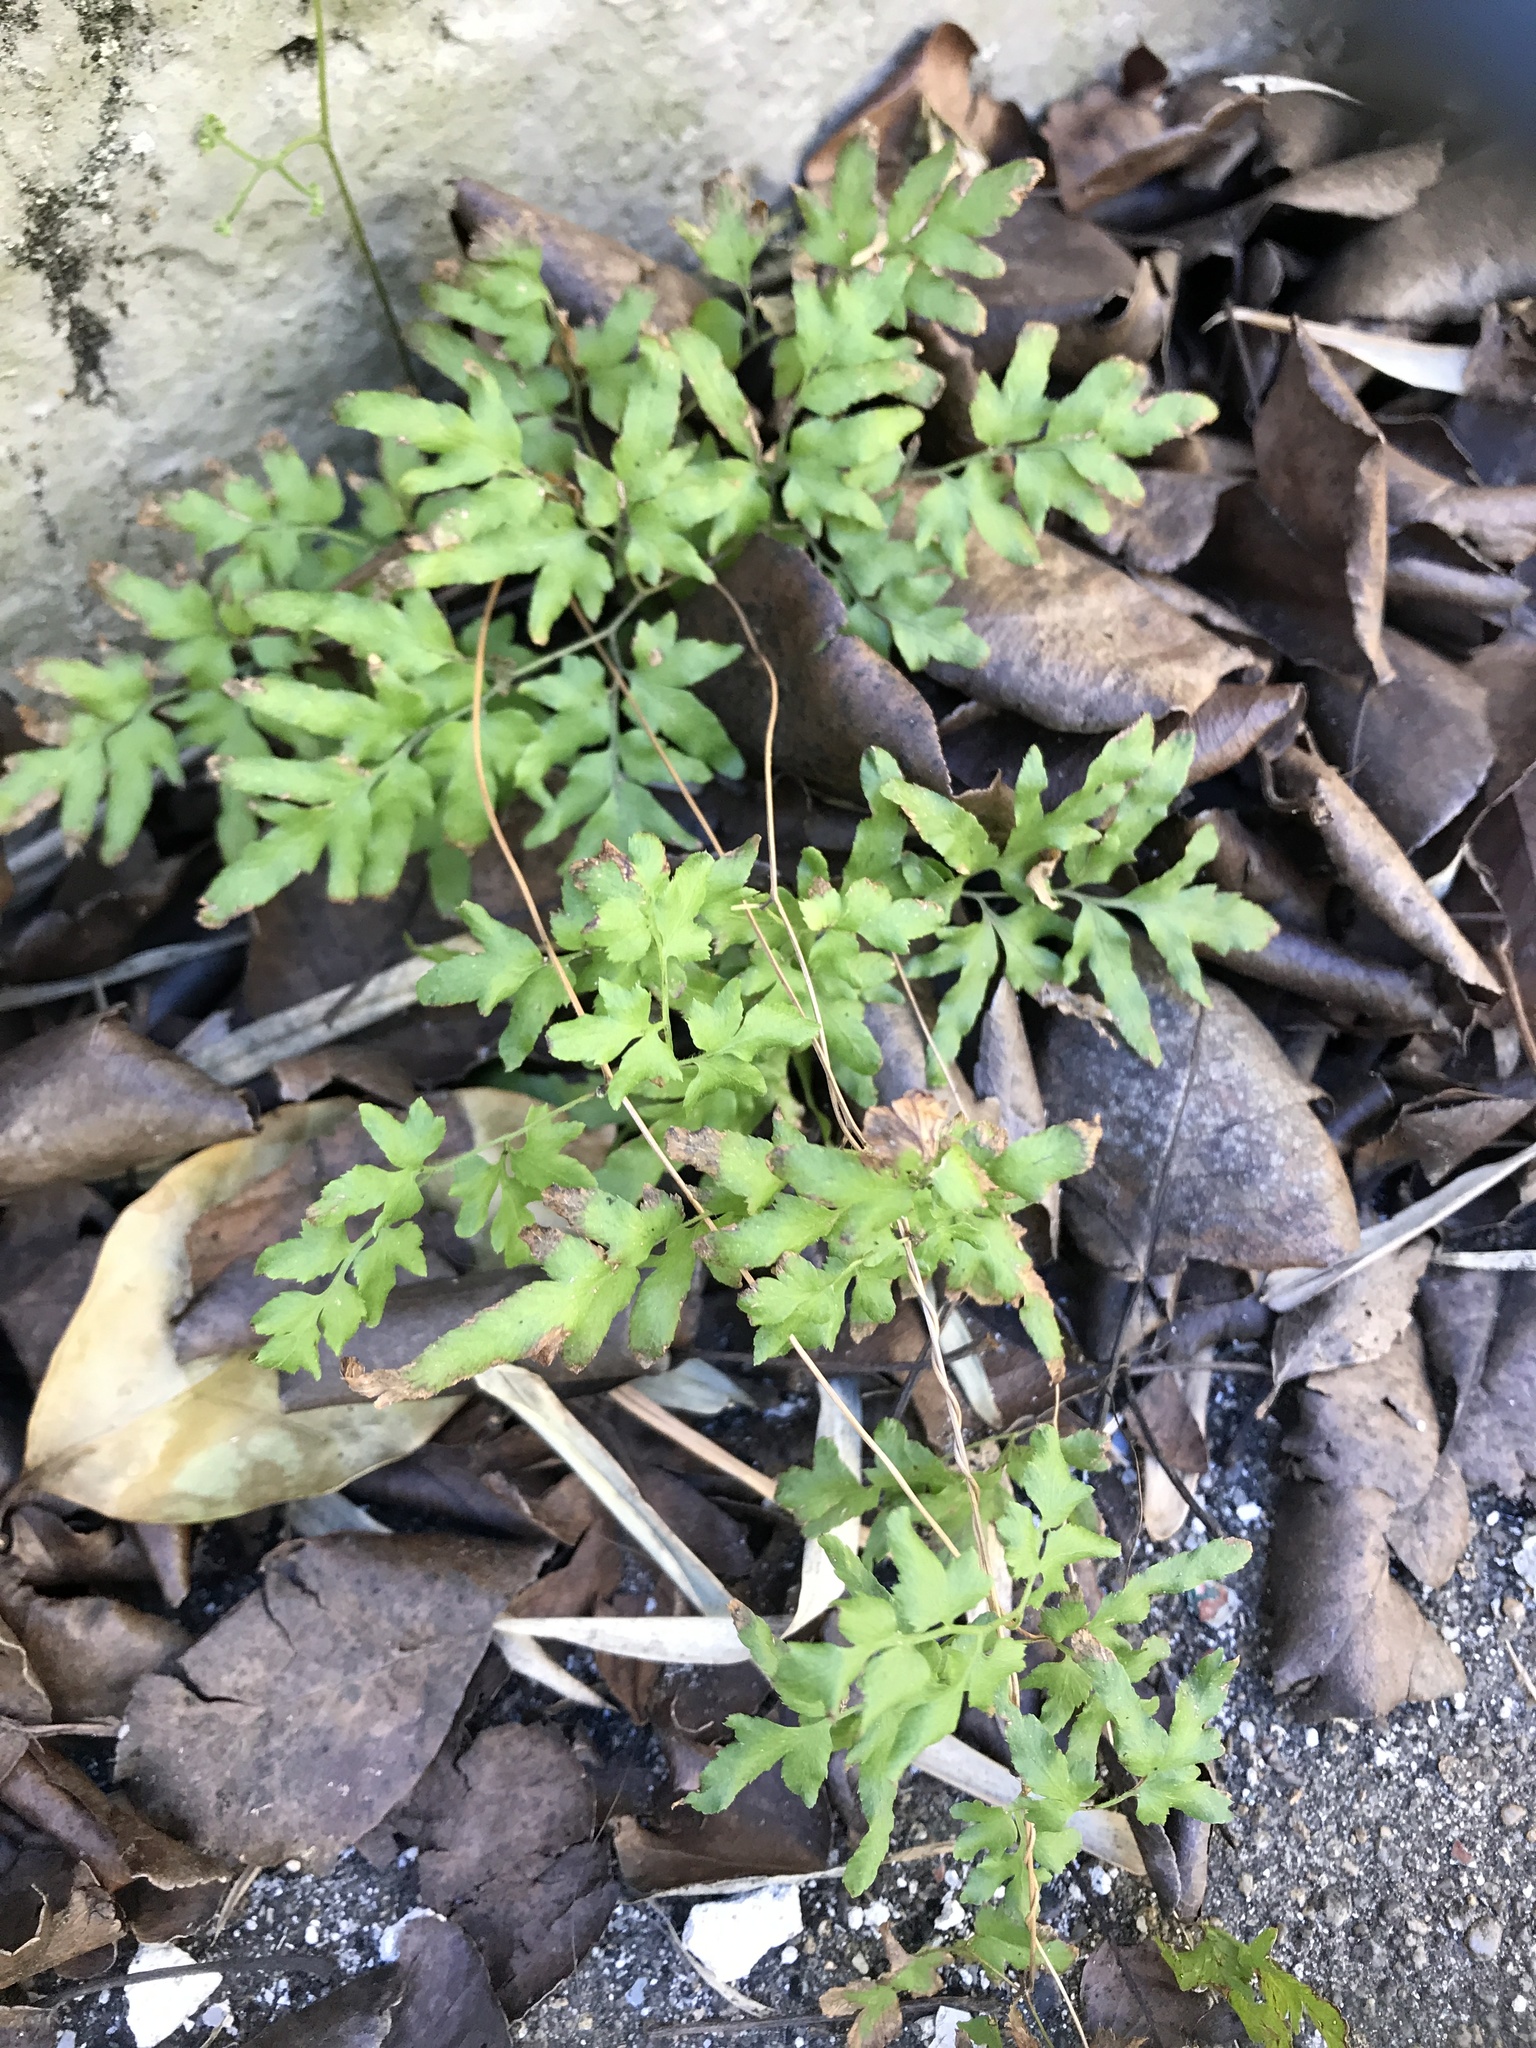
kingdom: Plantae
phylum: Tracheophyta
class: Polypodiopsida
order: Schizaeales
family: Lygodiaceae
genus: Lygodium
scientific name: Lygodium japonicum
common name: Japanese climbing fern
